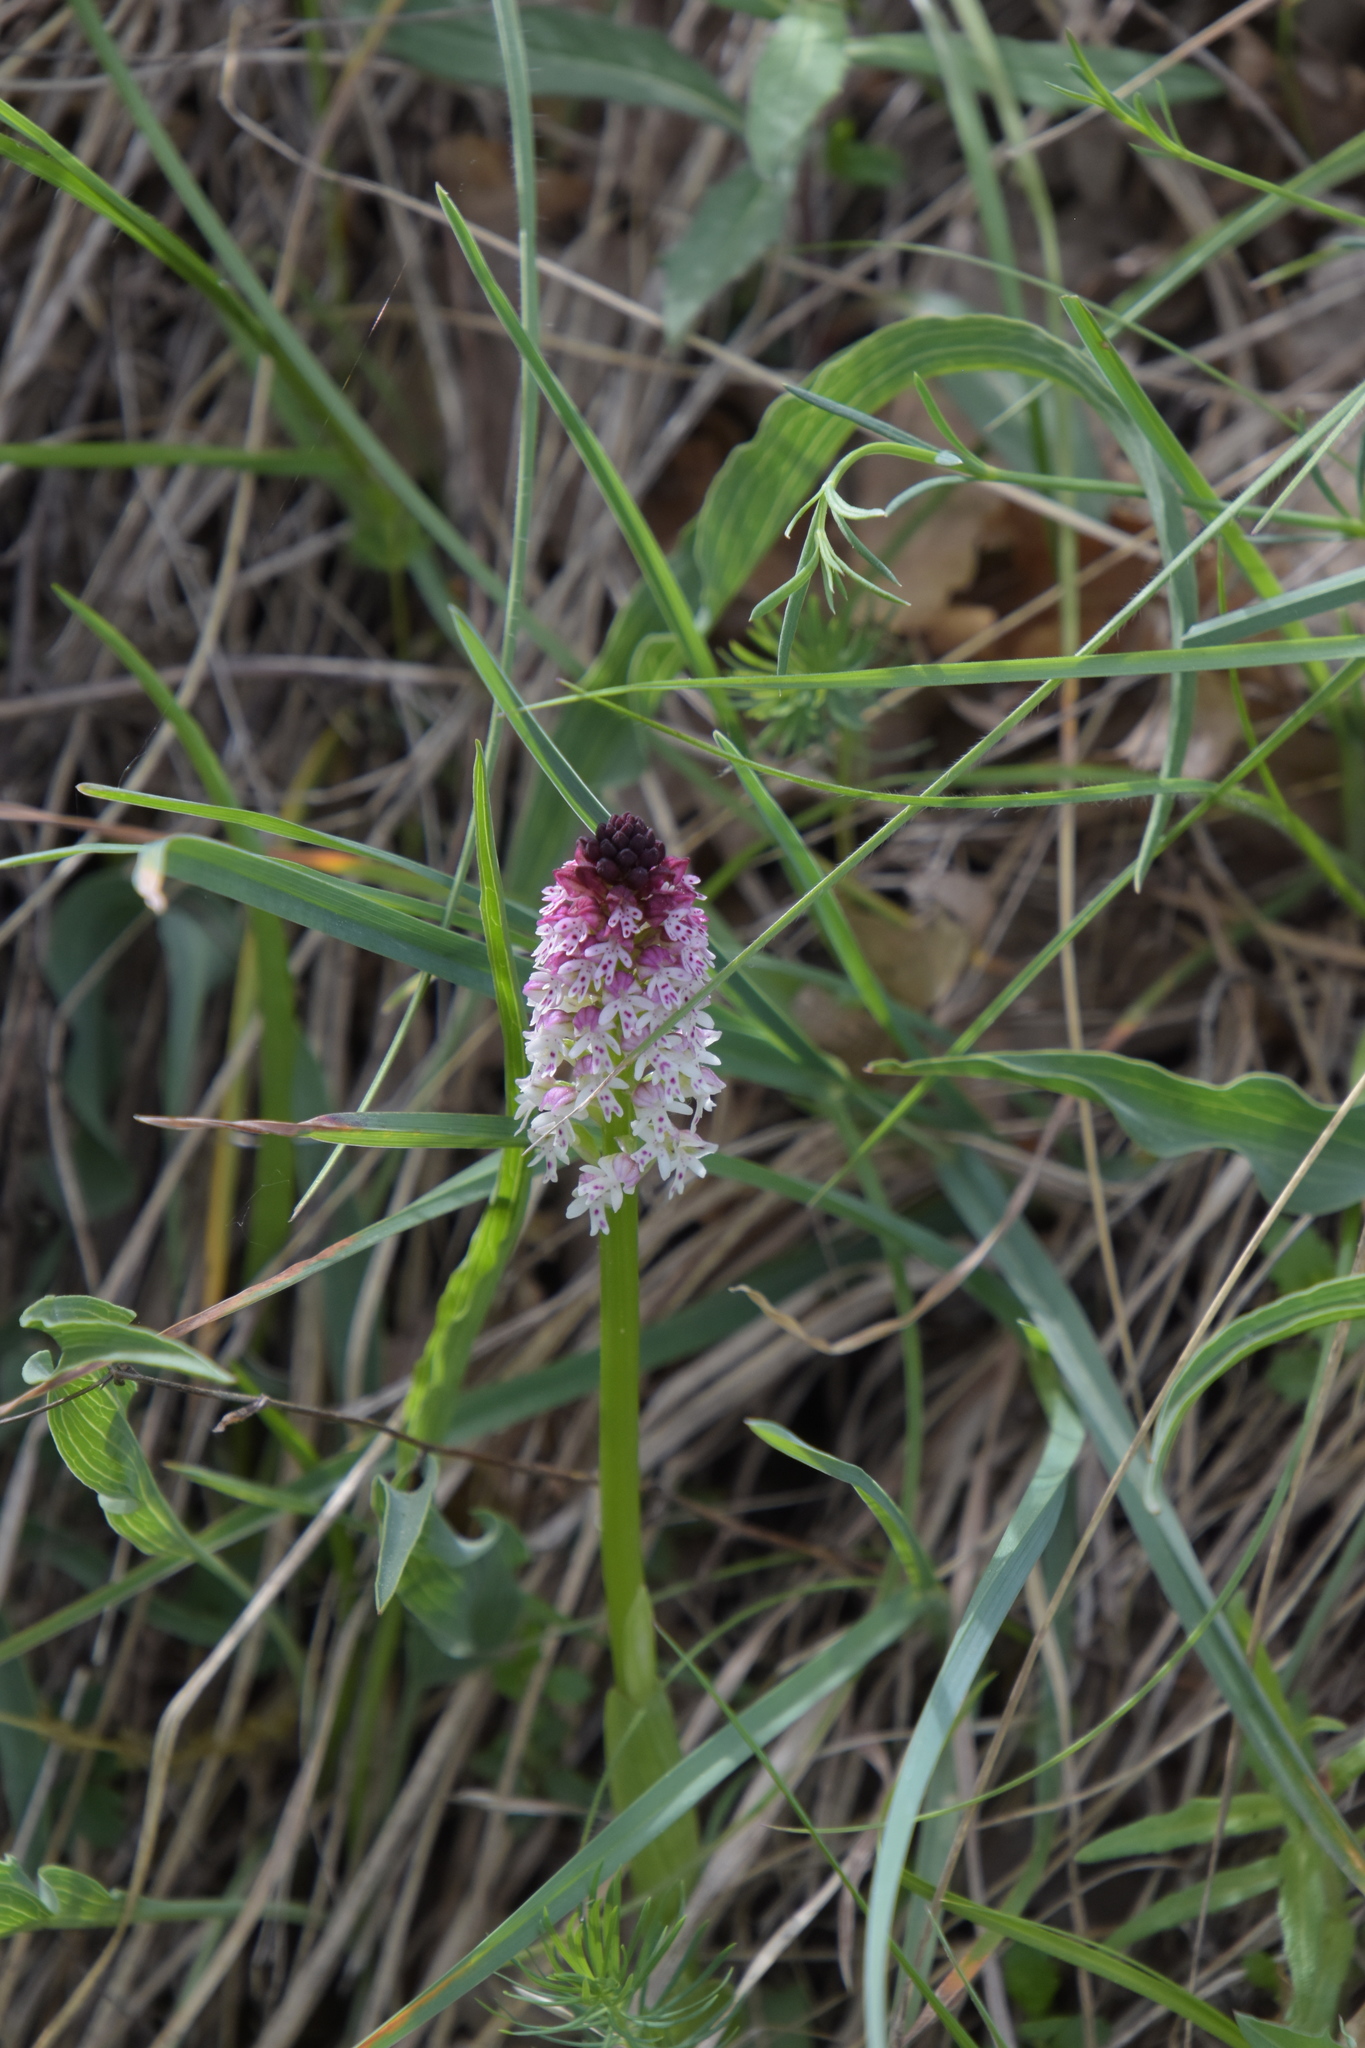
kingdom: Plantae
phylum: Tracheophyta
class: Liliopsida
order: Asparagales
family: Orchidaceae
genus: Neotinea
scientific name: Neotinea ustulata
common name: Burnt orchid
